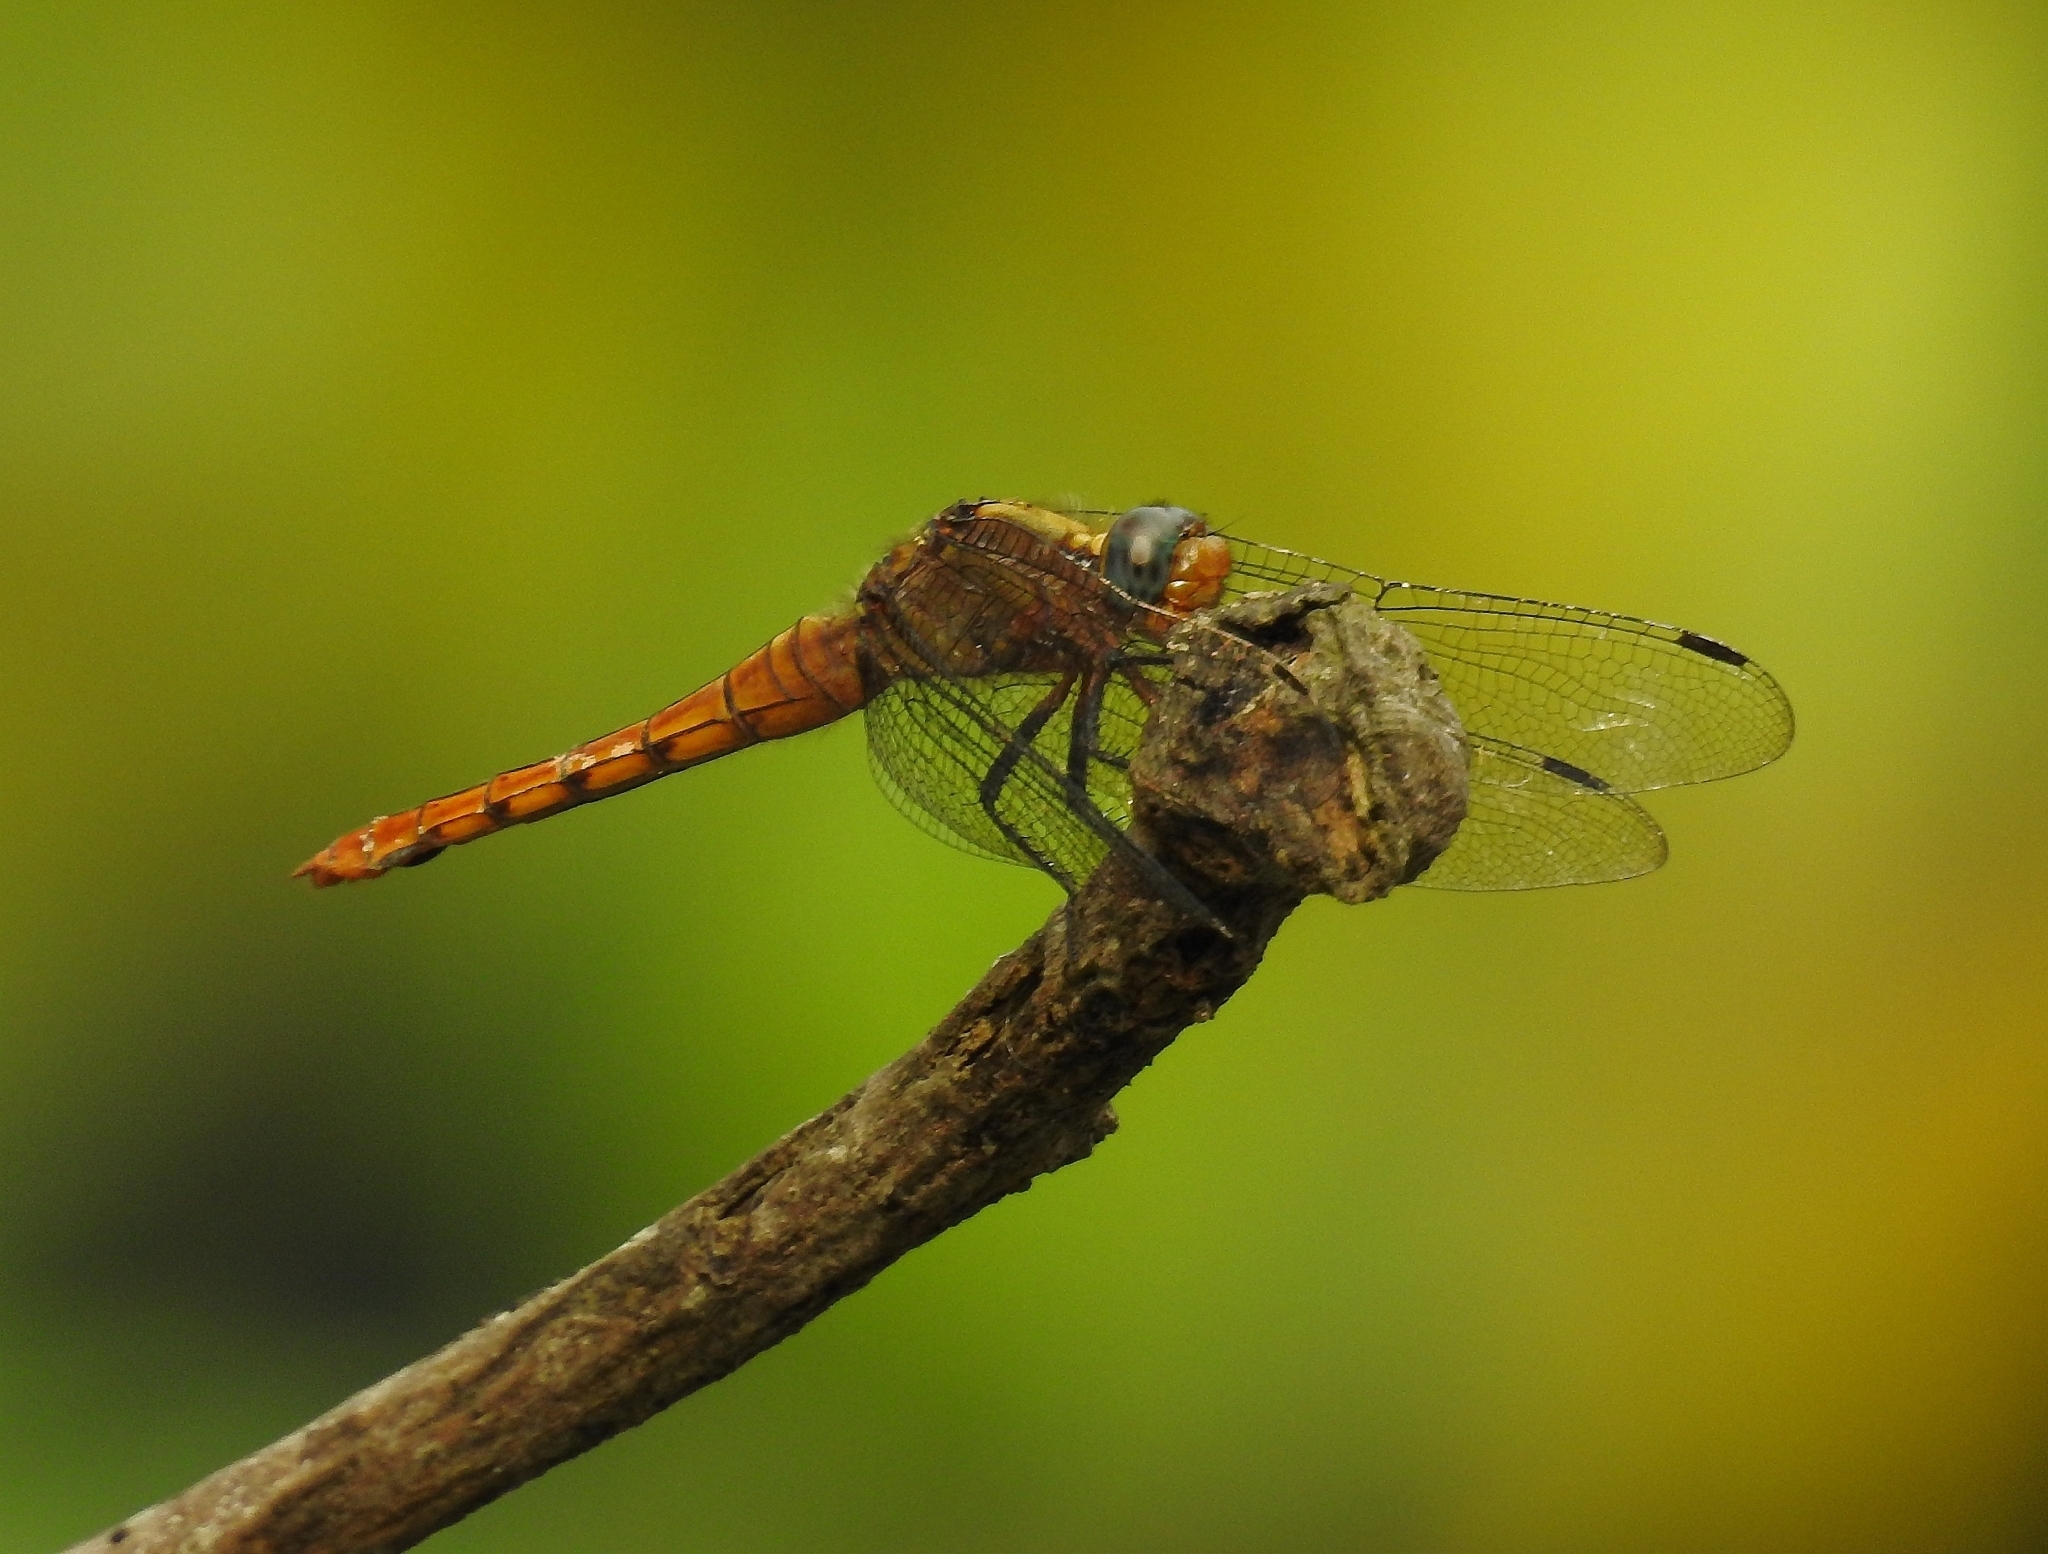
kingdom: Animalia
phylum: Arthropoda
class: Insecta
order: Odonata
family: Libellulidae
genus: Orthetrum
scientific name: Orthetrum chrysis
